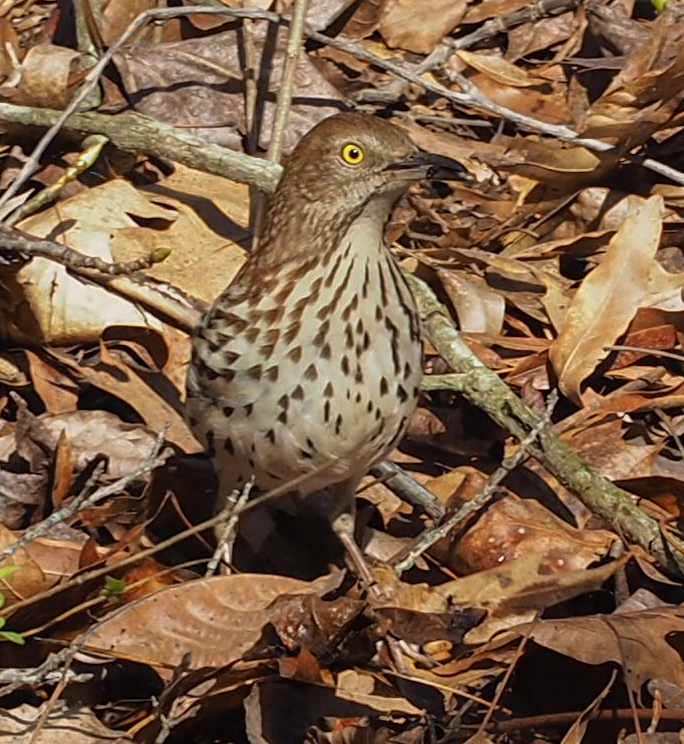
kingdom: Animalia
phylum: Chordata
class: Aves
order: Passeriformes
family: Mimidae
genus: Toxostoma
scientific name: Toxostoma rufum
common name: Brown thrasher
